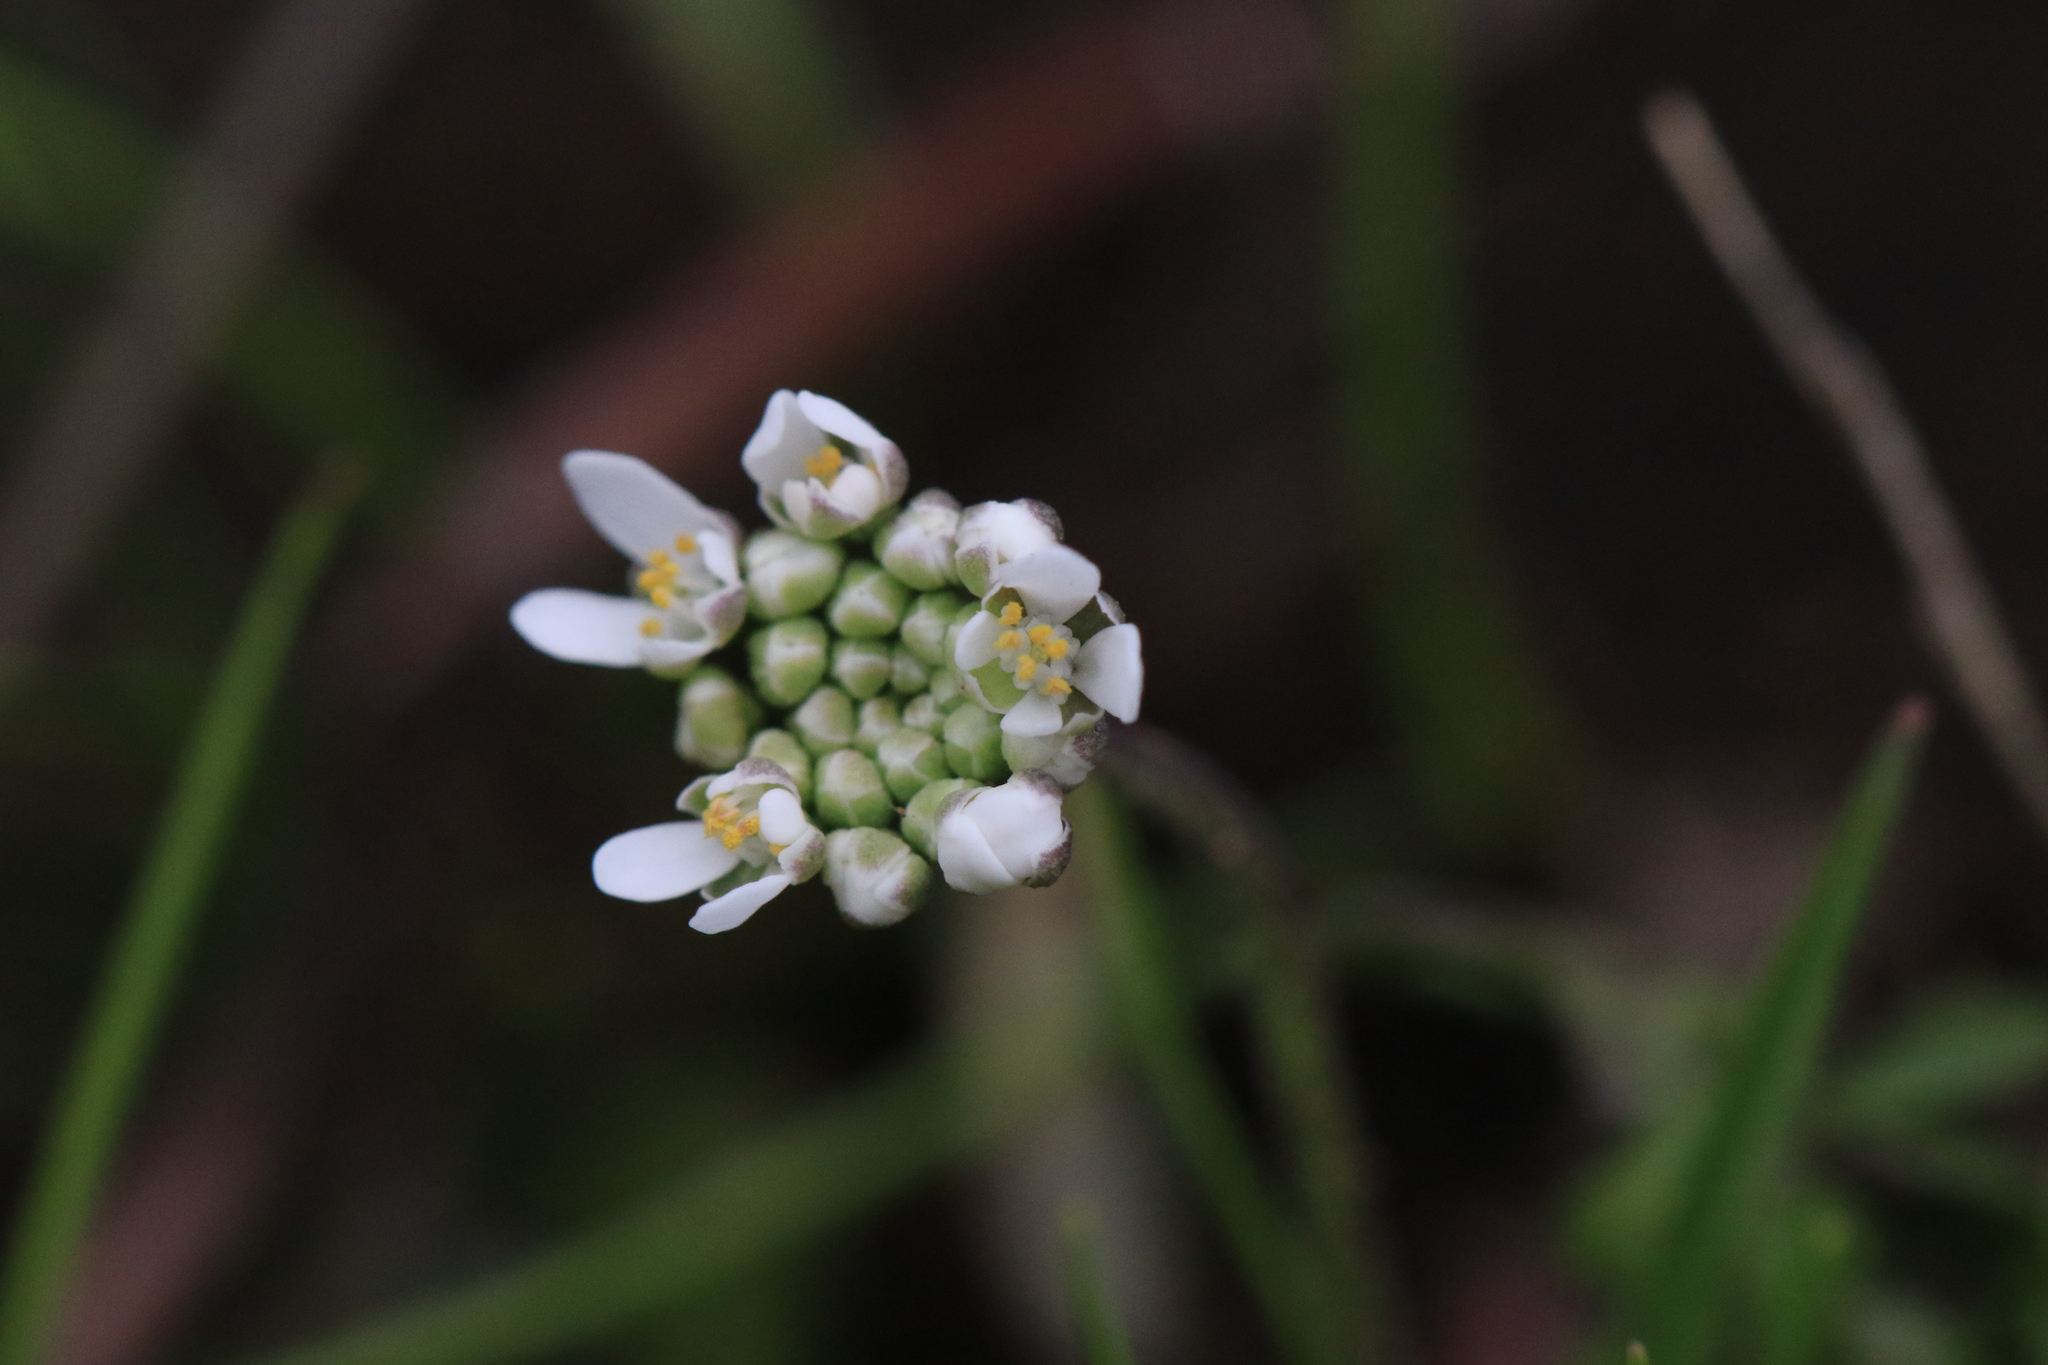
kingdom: Plantae
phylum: Tracheophyta
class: Magnoliopsida
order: Brassicales
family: Brassicaceae
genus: Teesdalia
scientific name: Teesdalia nudicaulis
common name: Shepherd's cress
